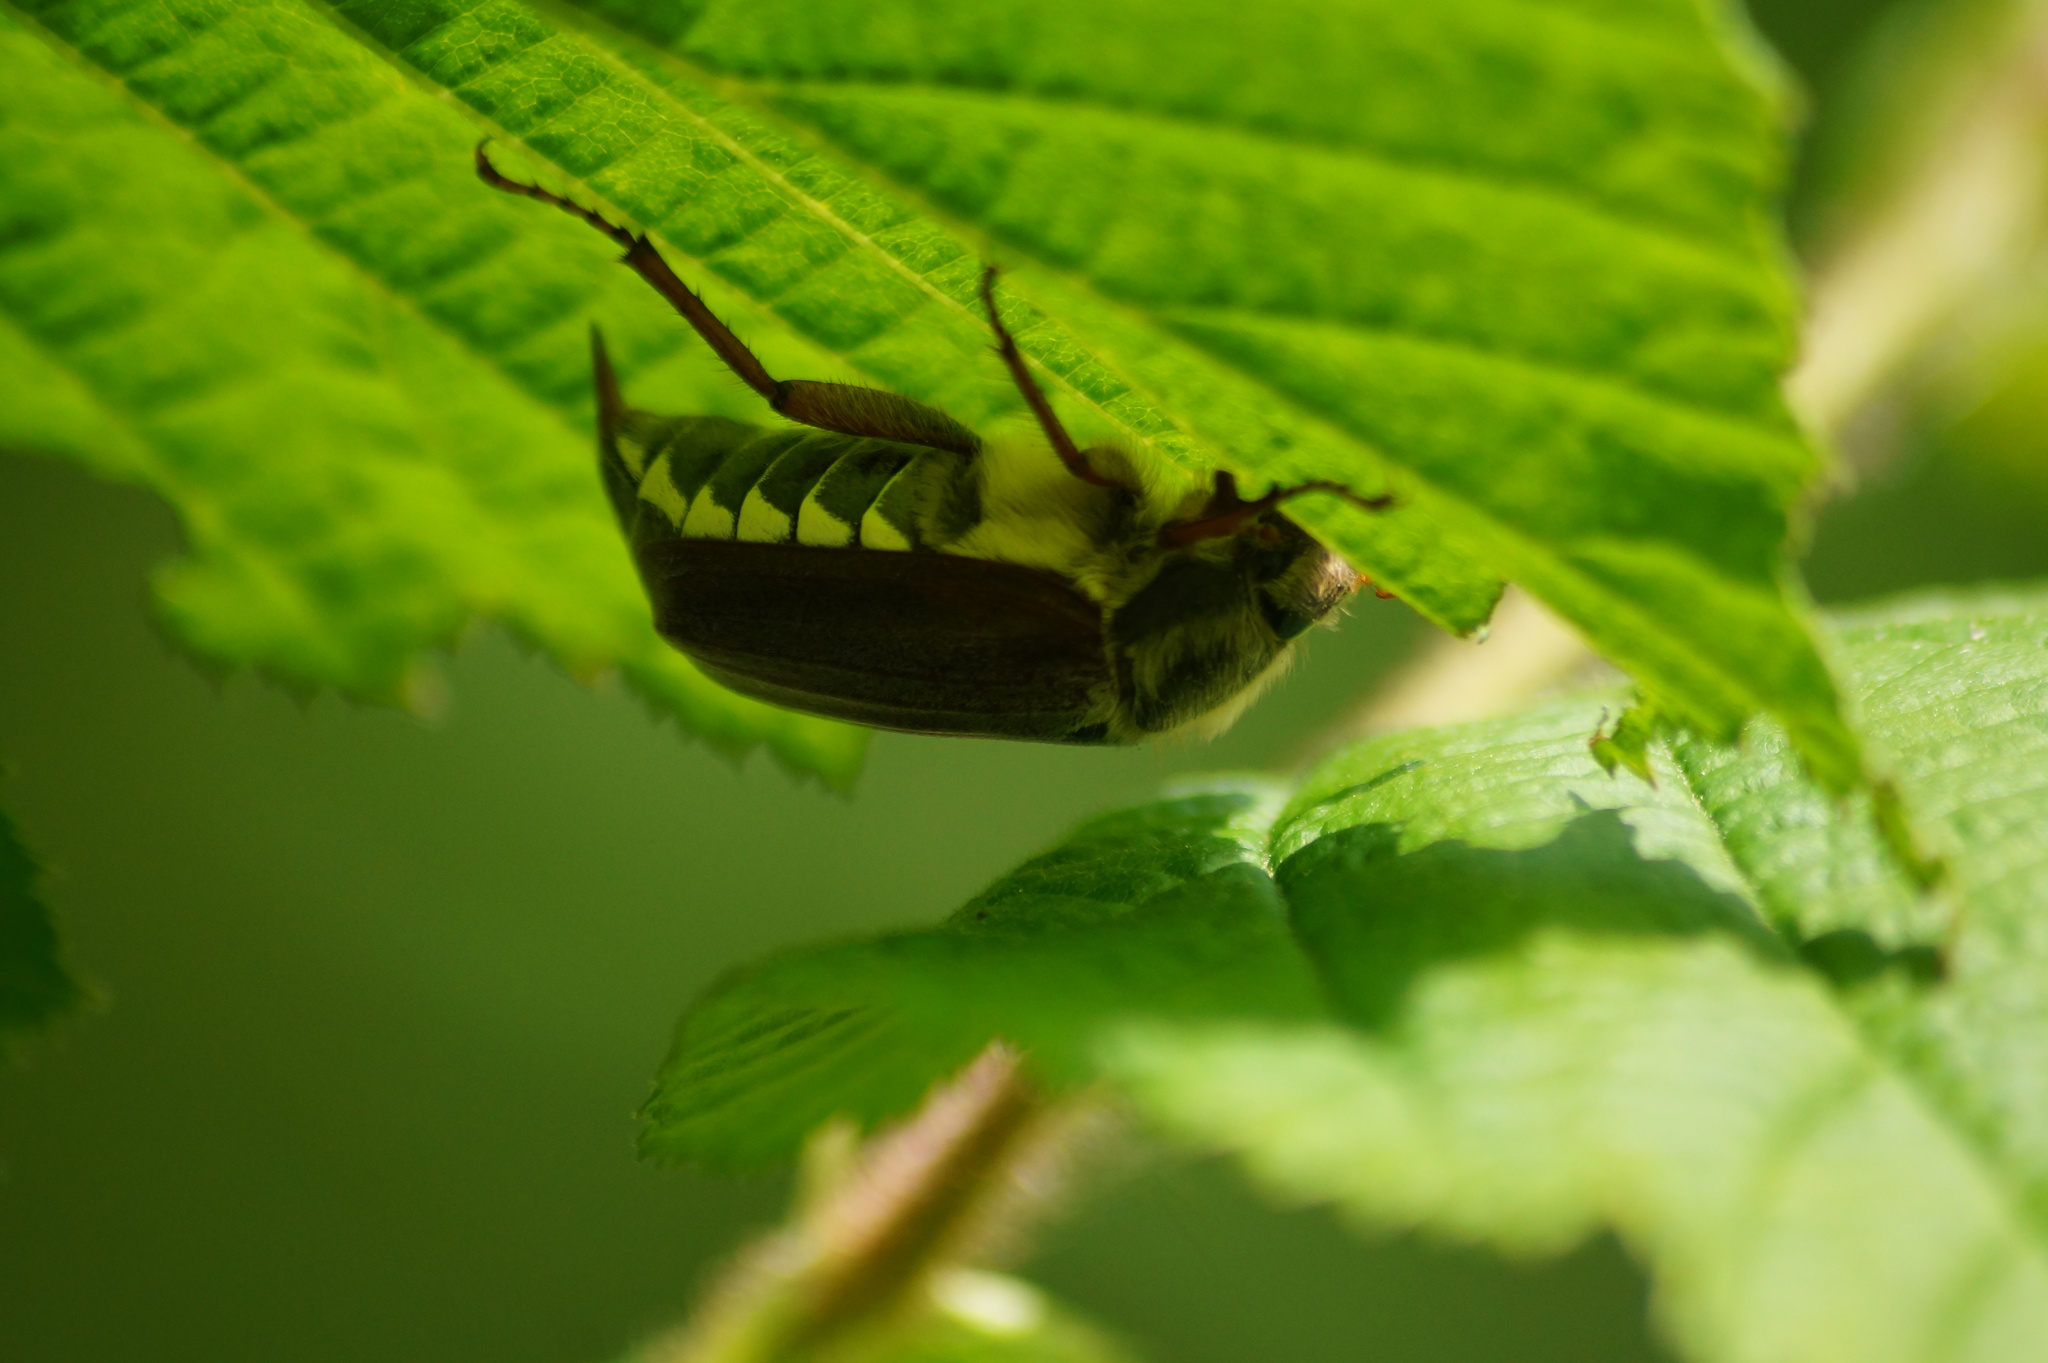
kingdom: Animalia
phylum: Arthropoda
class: Insecta
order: Coleoptera
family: Scarabaeidae
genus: Melolontha
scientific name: Melolontha melolontha
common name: Cockchafer maybeetle
